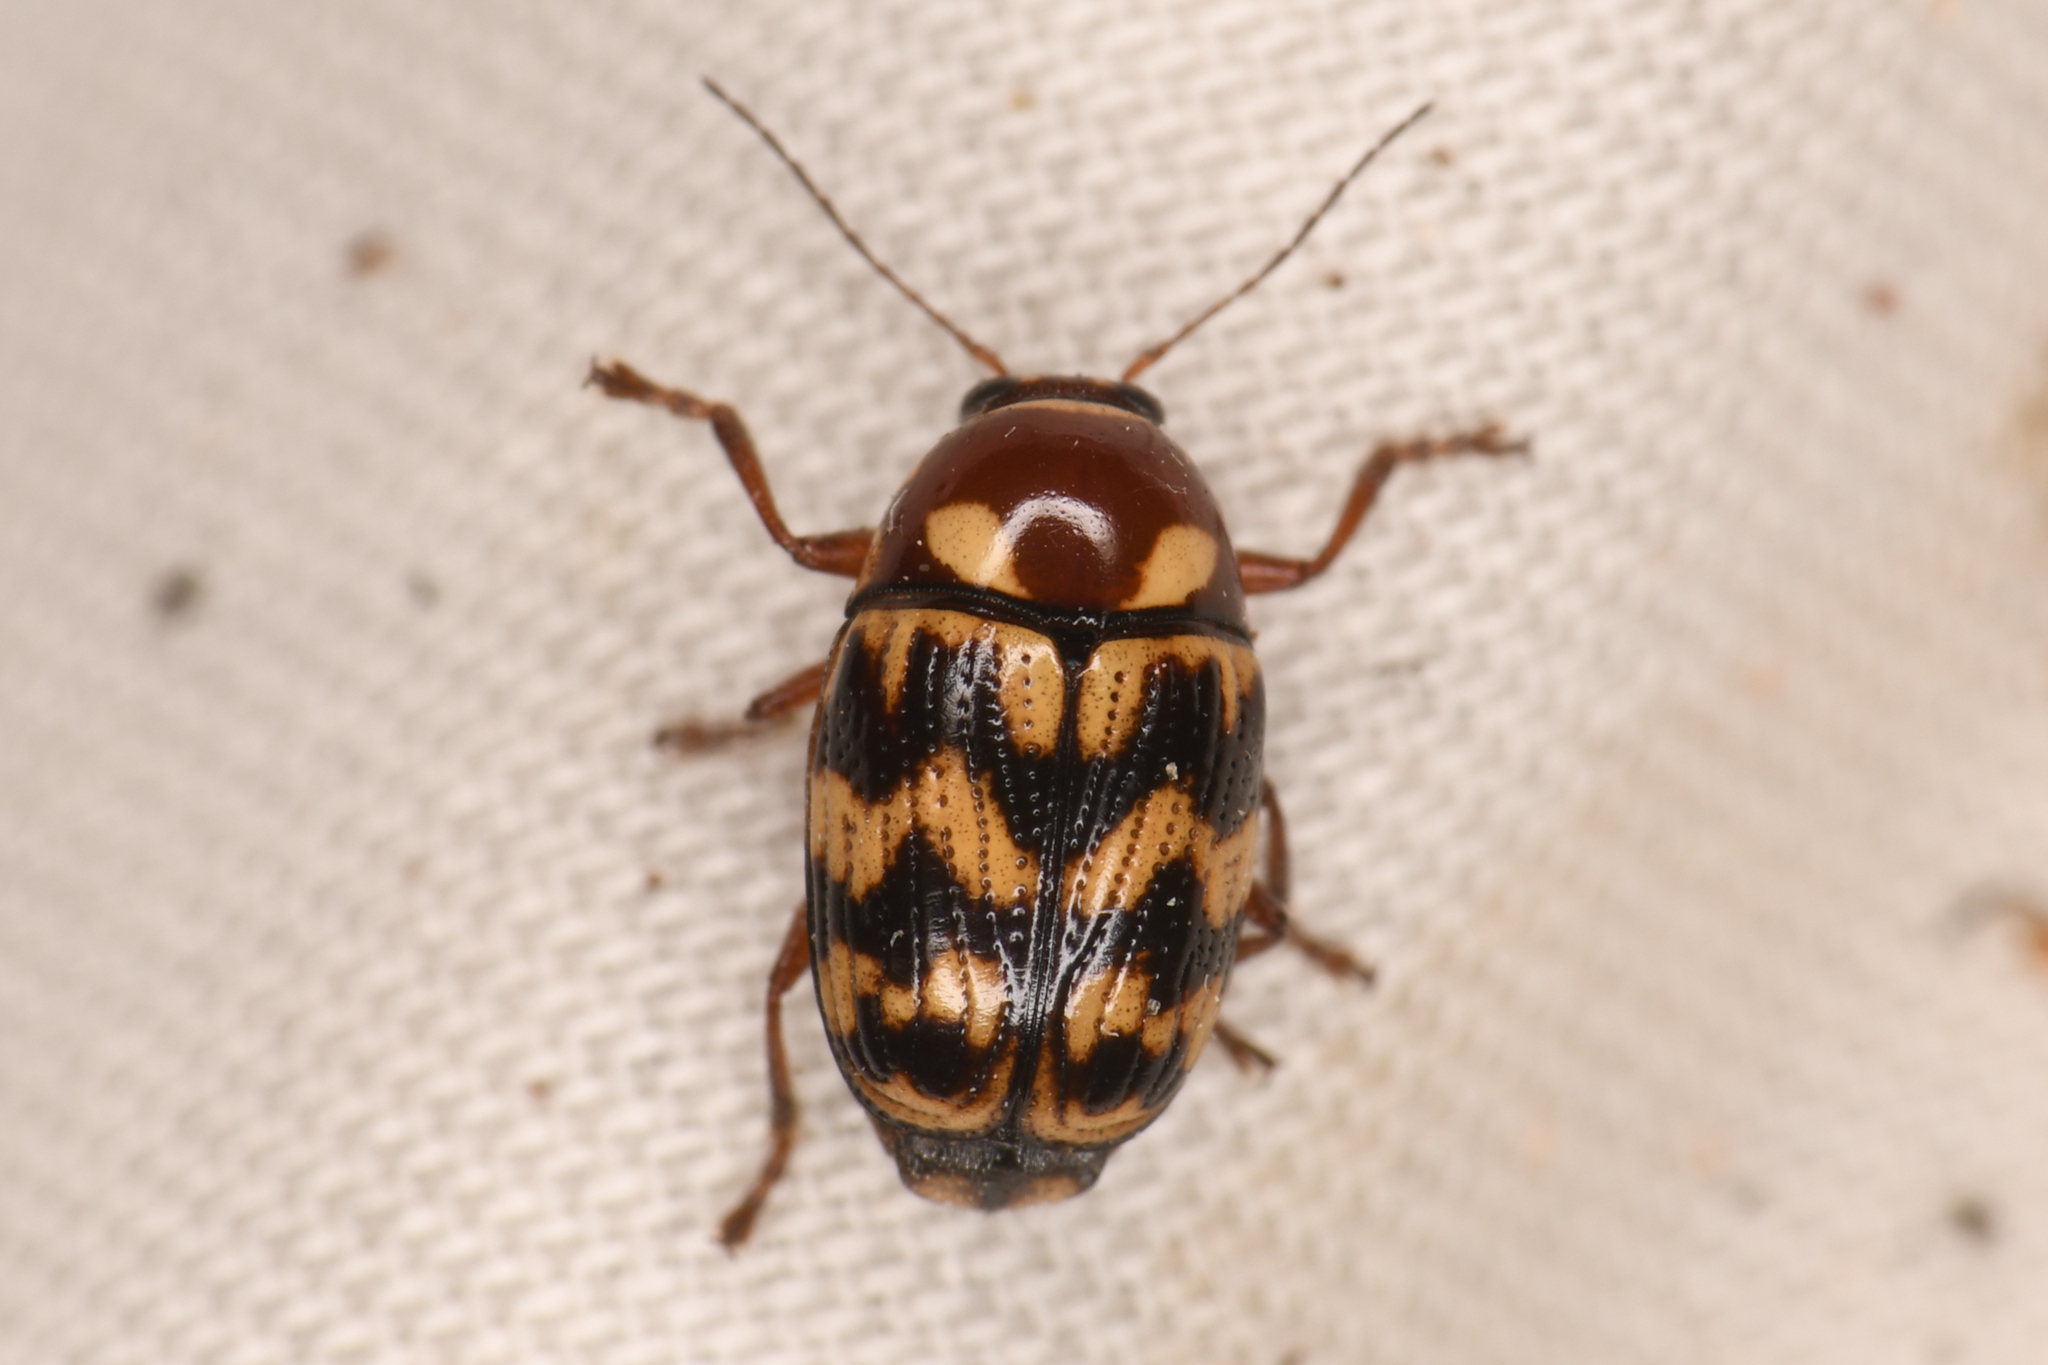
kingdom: Animalia
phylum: Arthropoda
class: Insecta
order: Coleoptera
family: Chrysomelidae
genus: Cryptocephalus
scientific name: Cryptocephalus triundulatus
